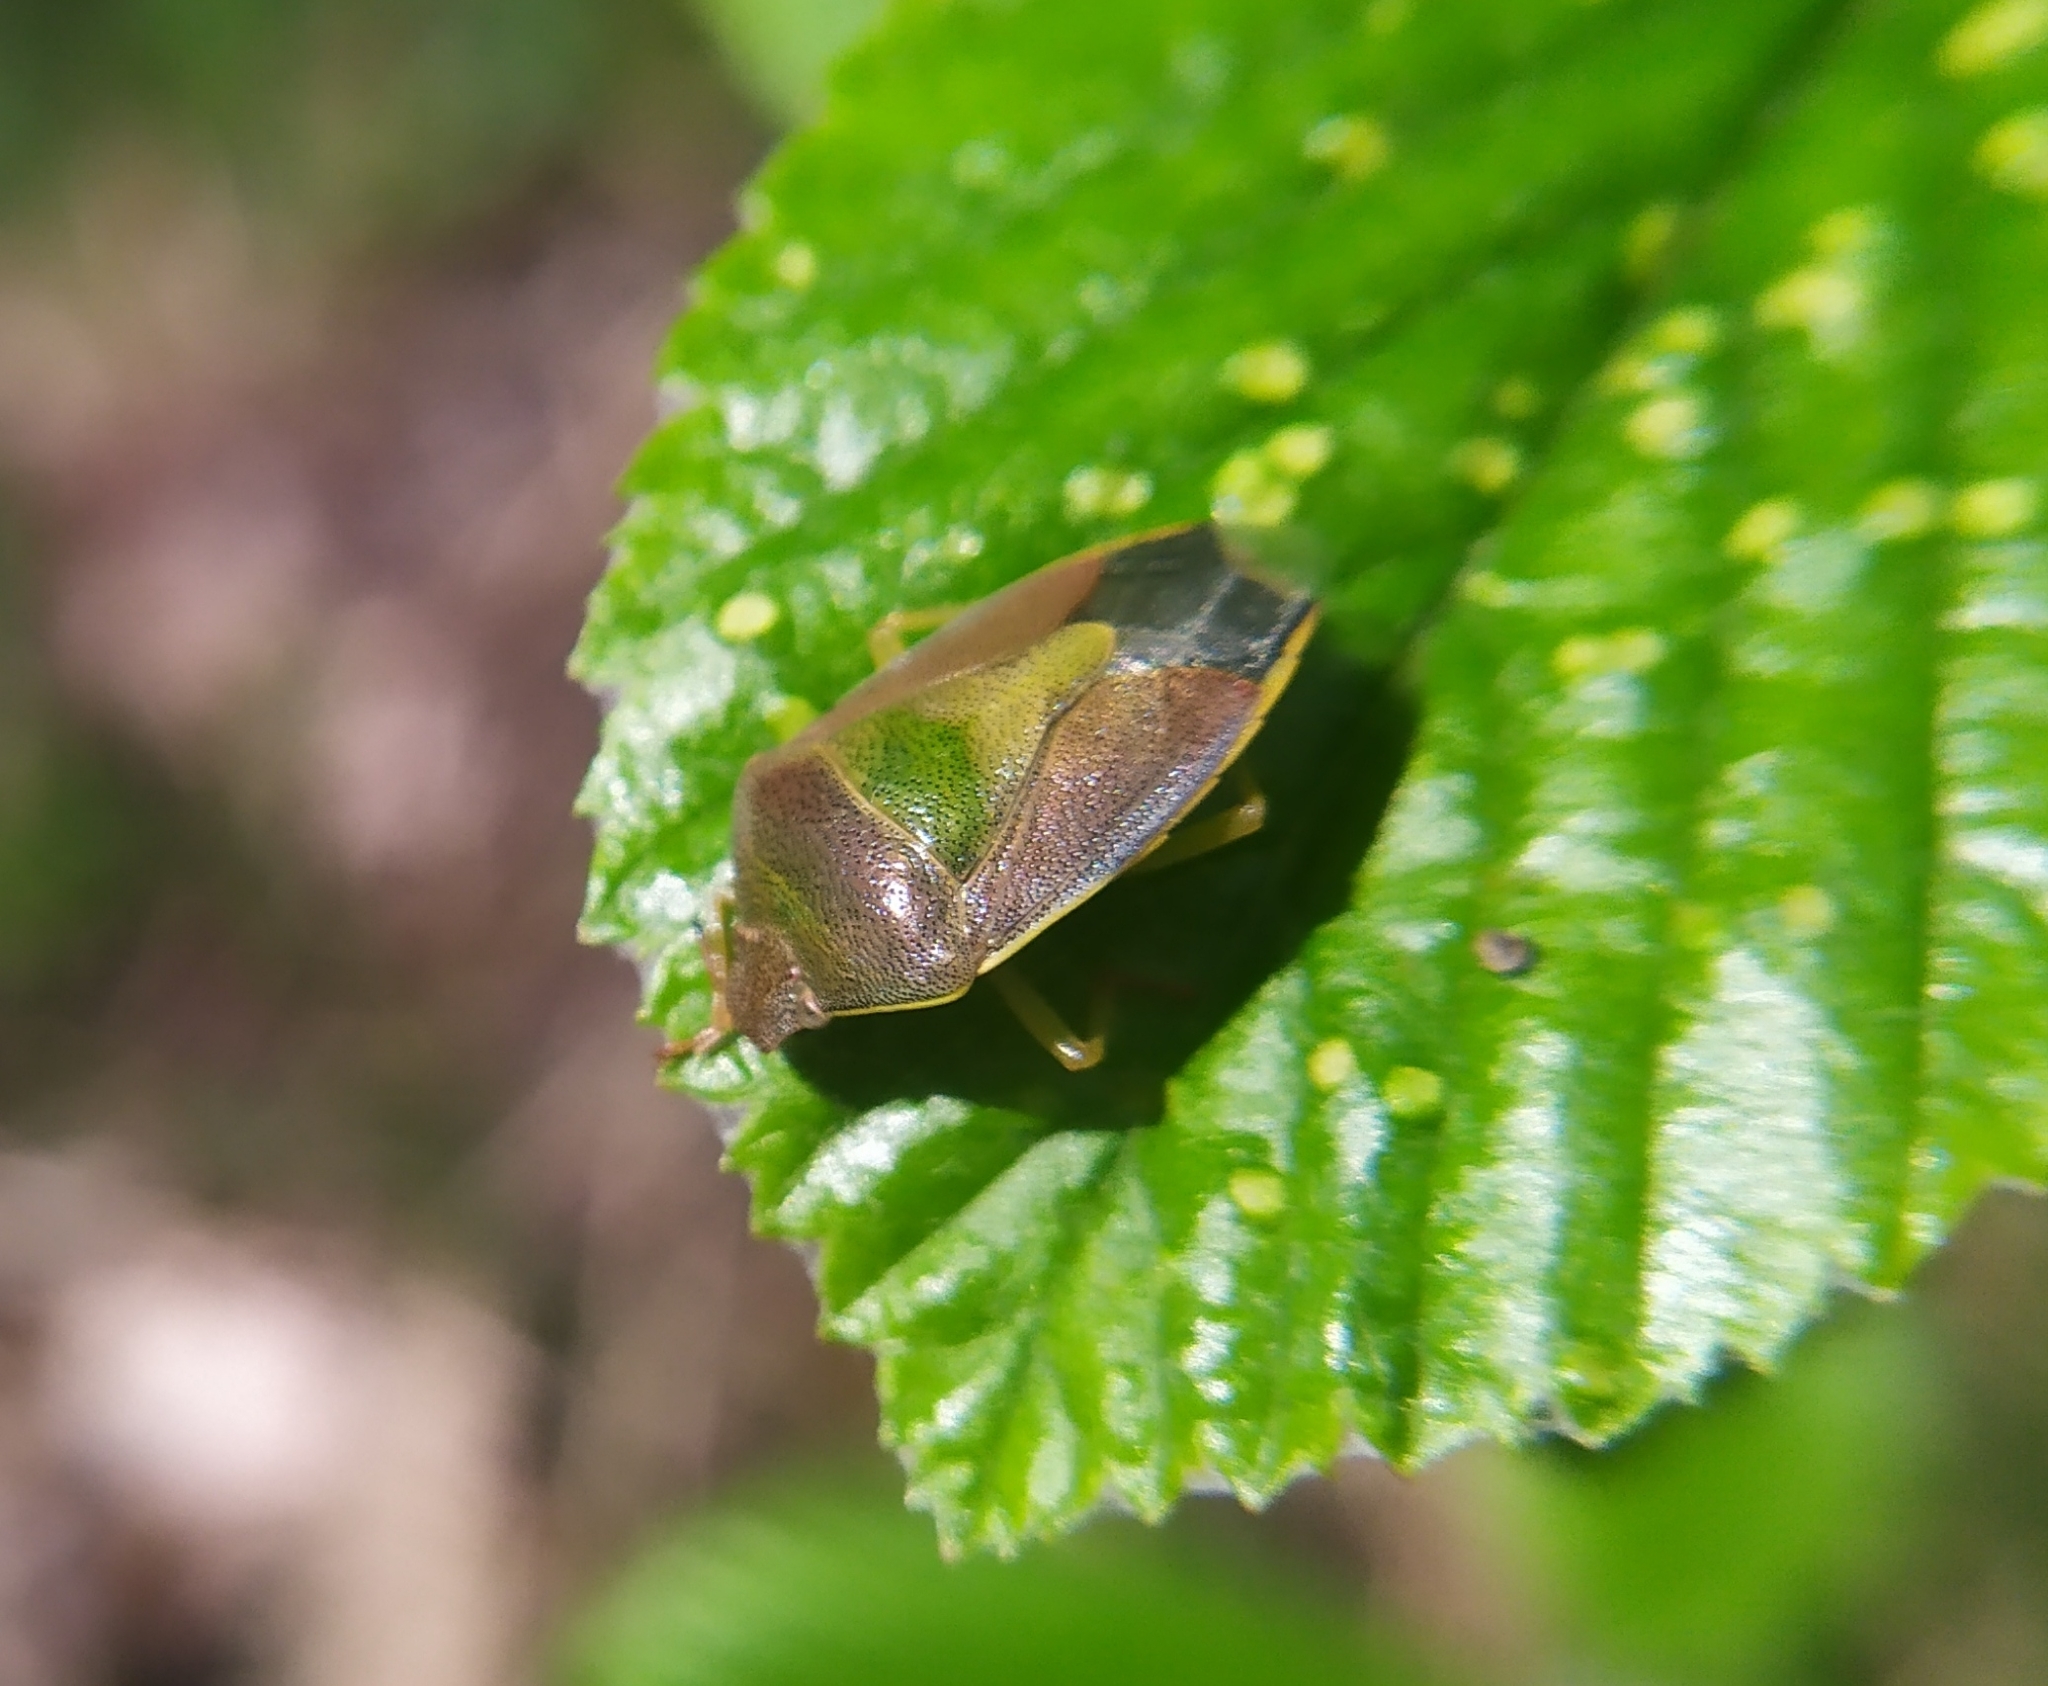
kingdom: Animalia
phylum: Arthropoda
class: Insecta
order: Hemiptera
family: Pentatomidae
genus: Piezodorus
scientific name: Piezodorus lituratus
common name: Stink bug
